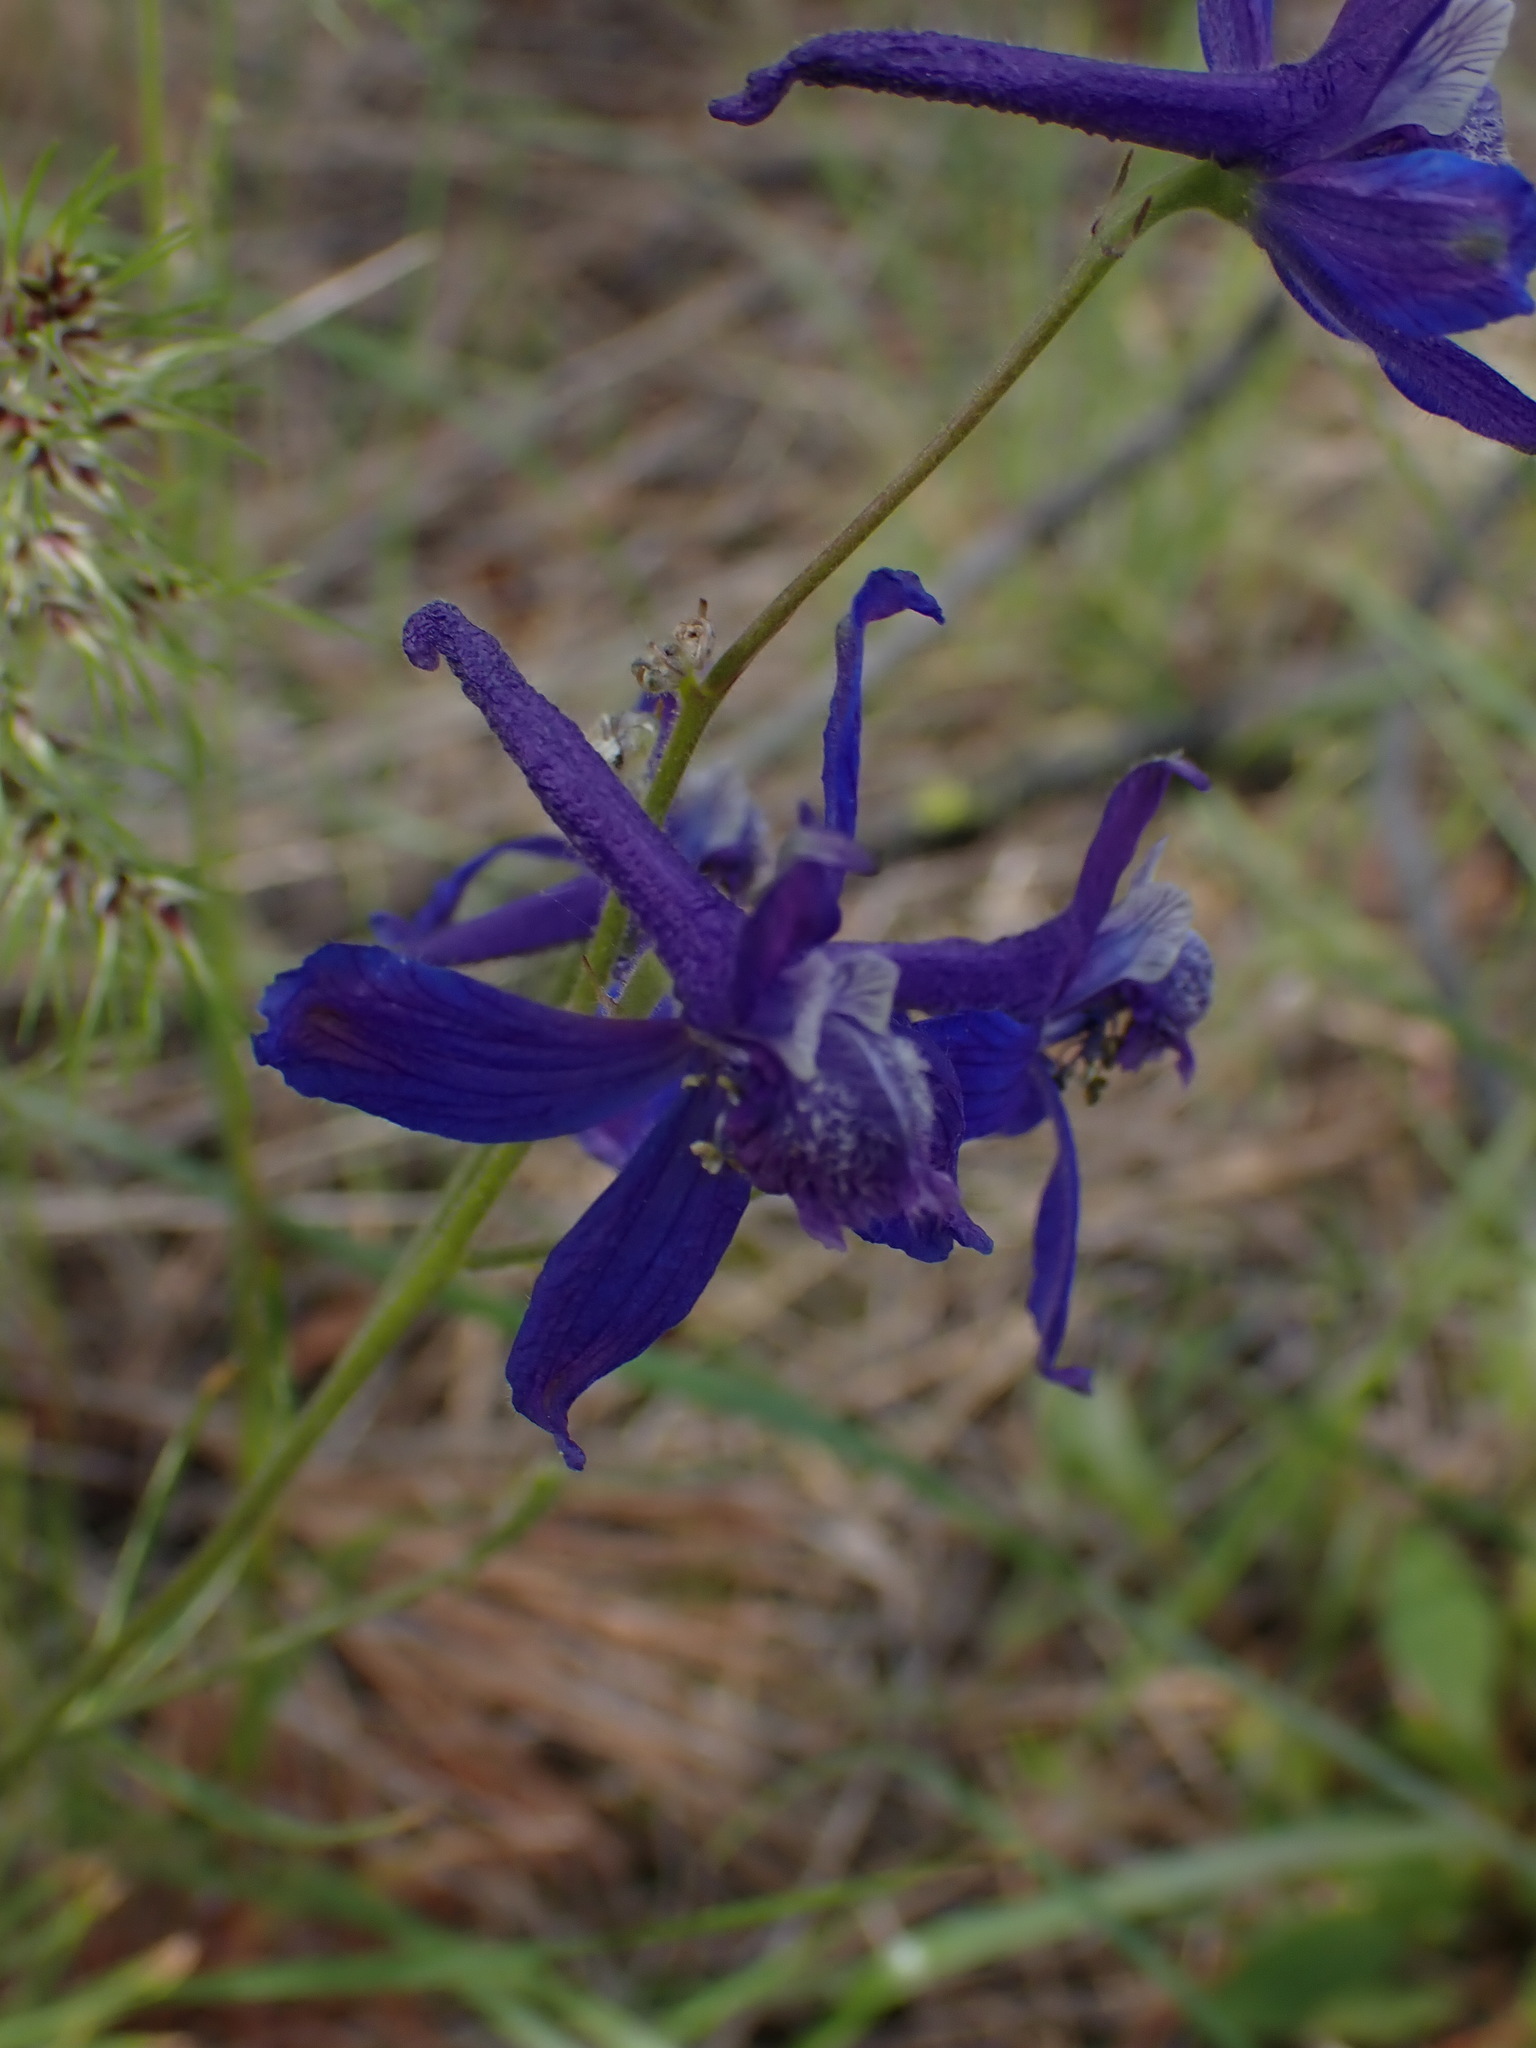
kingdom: Plantae
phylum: Tracheophyta
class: Magnoliopsida
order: Ranunculales
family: Ranunculaceae
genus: Delphinium
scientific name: Delphinium nuttallianum
